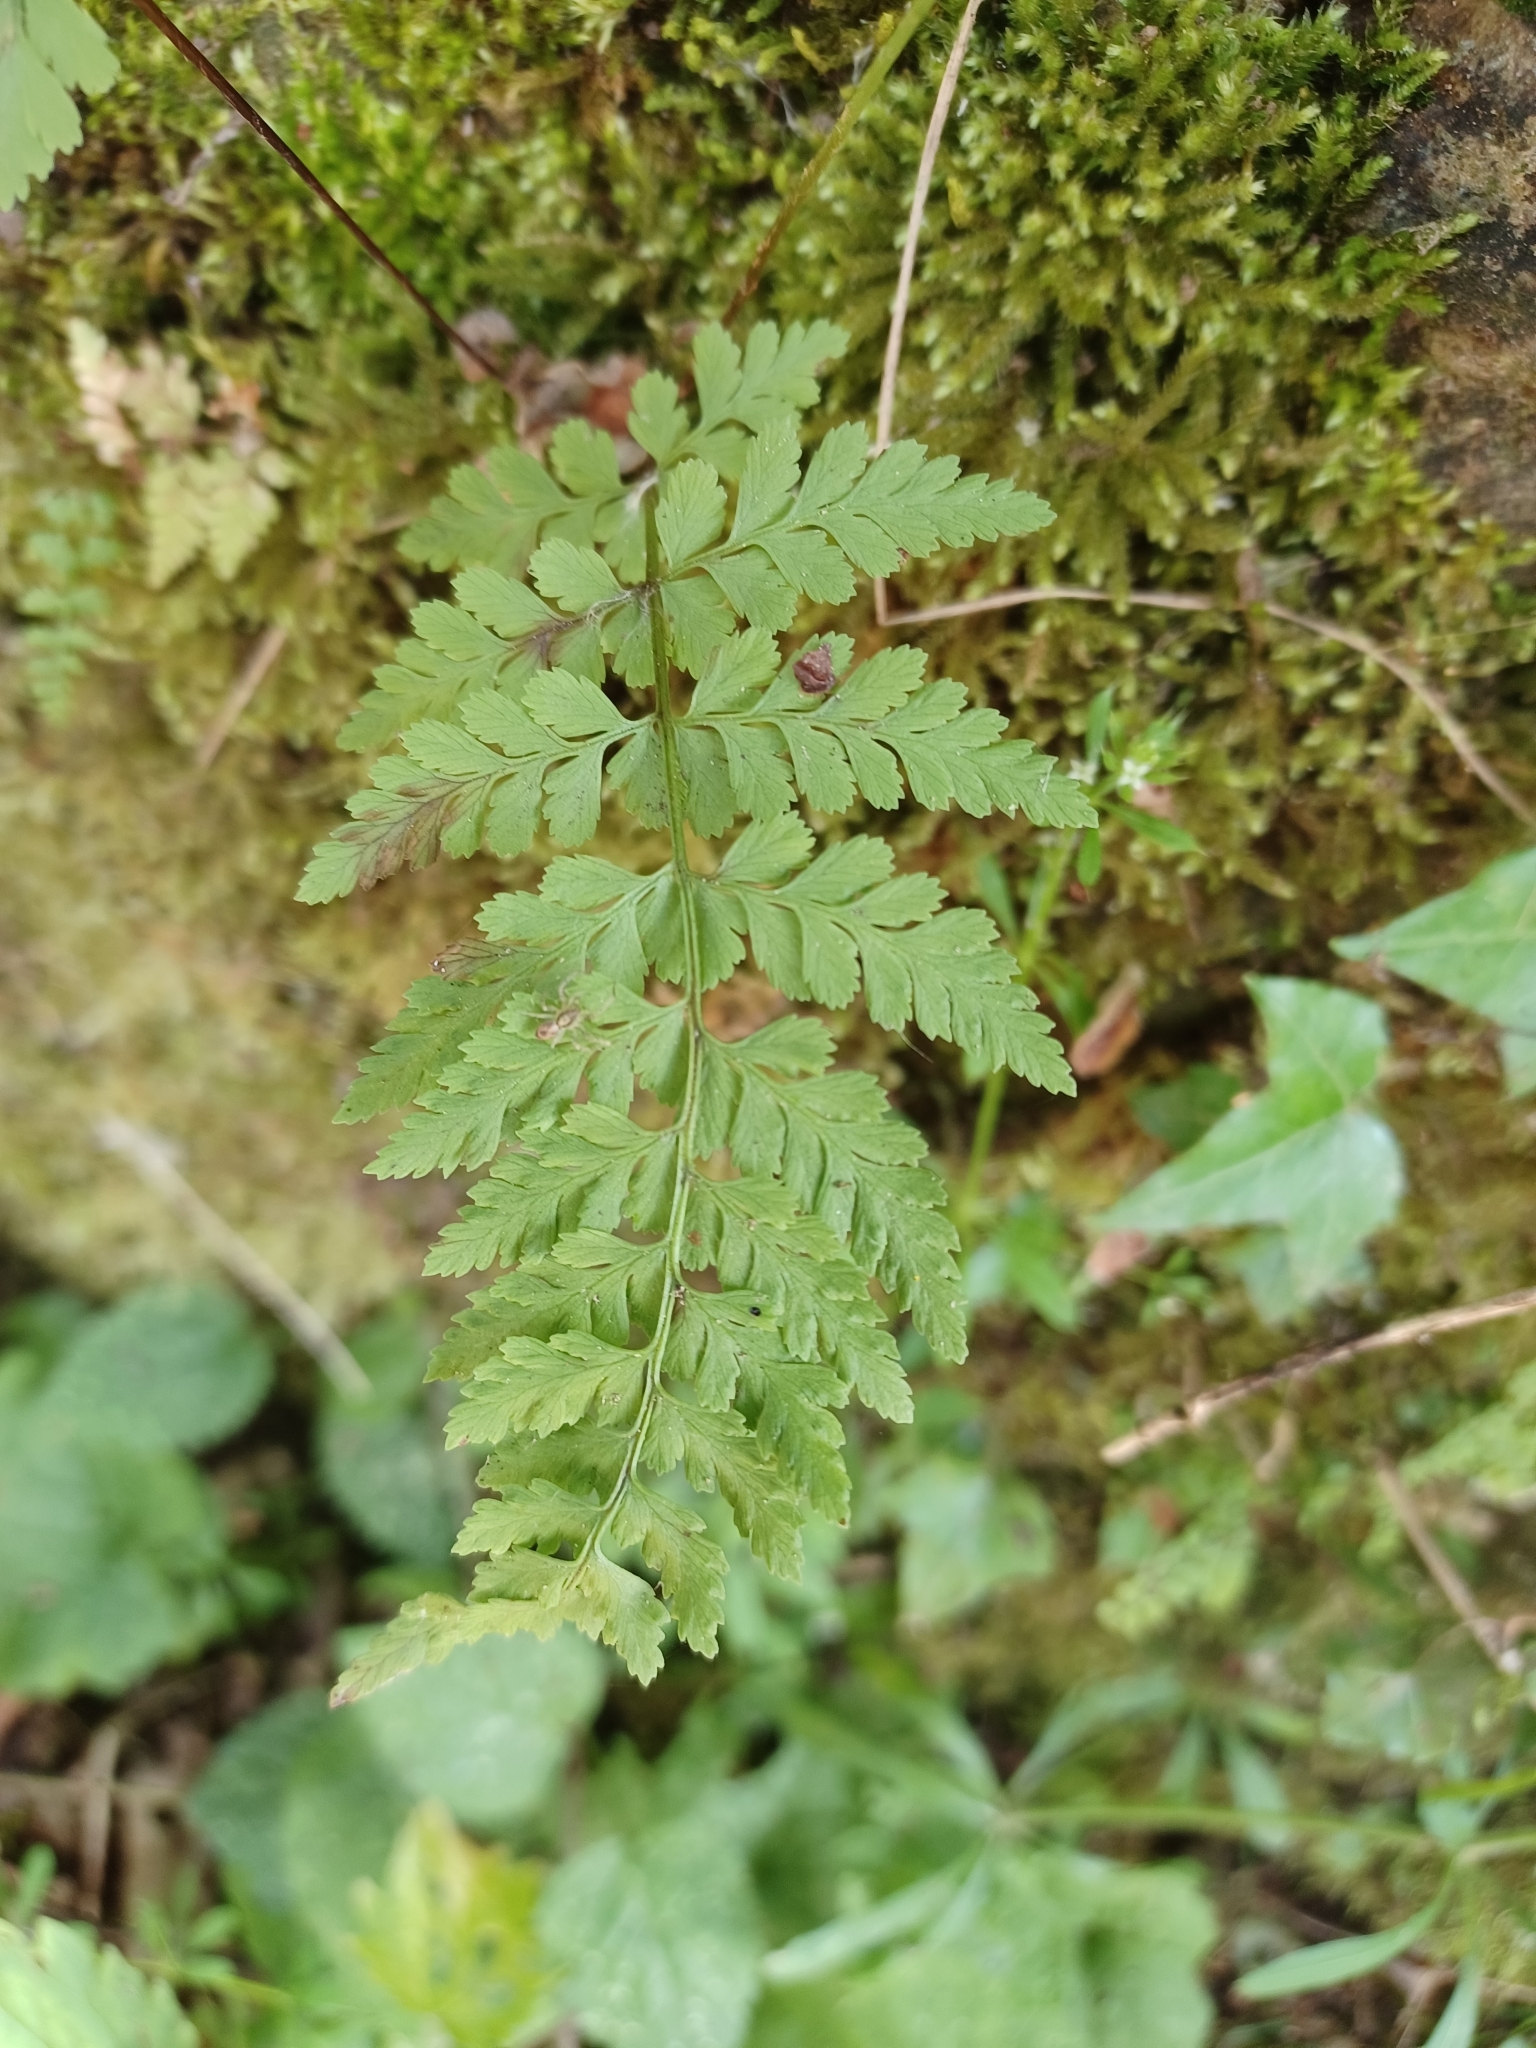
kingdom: Plantae
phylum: Tracheophyta
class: Polypodiopsida
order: Polypodiales
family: Cystopteridaceae
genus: Cystopteris
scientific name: Cystopteris fragilis
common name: Brittle bladder fern
